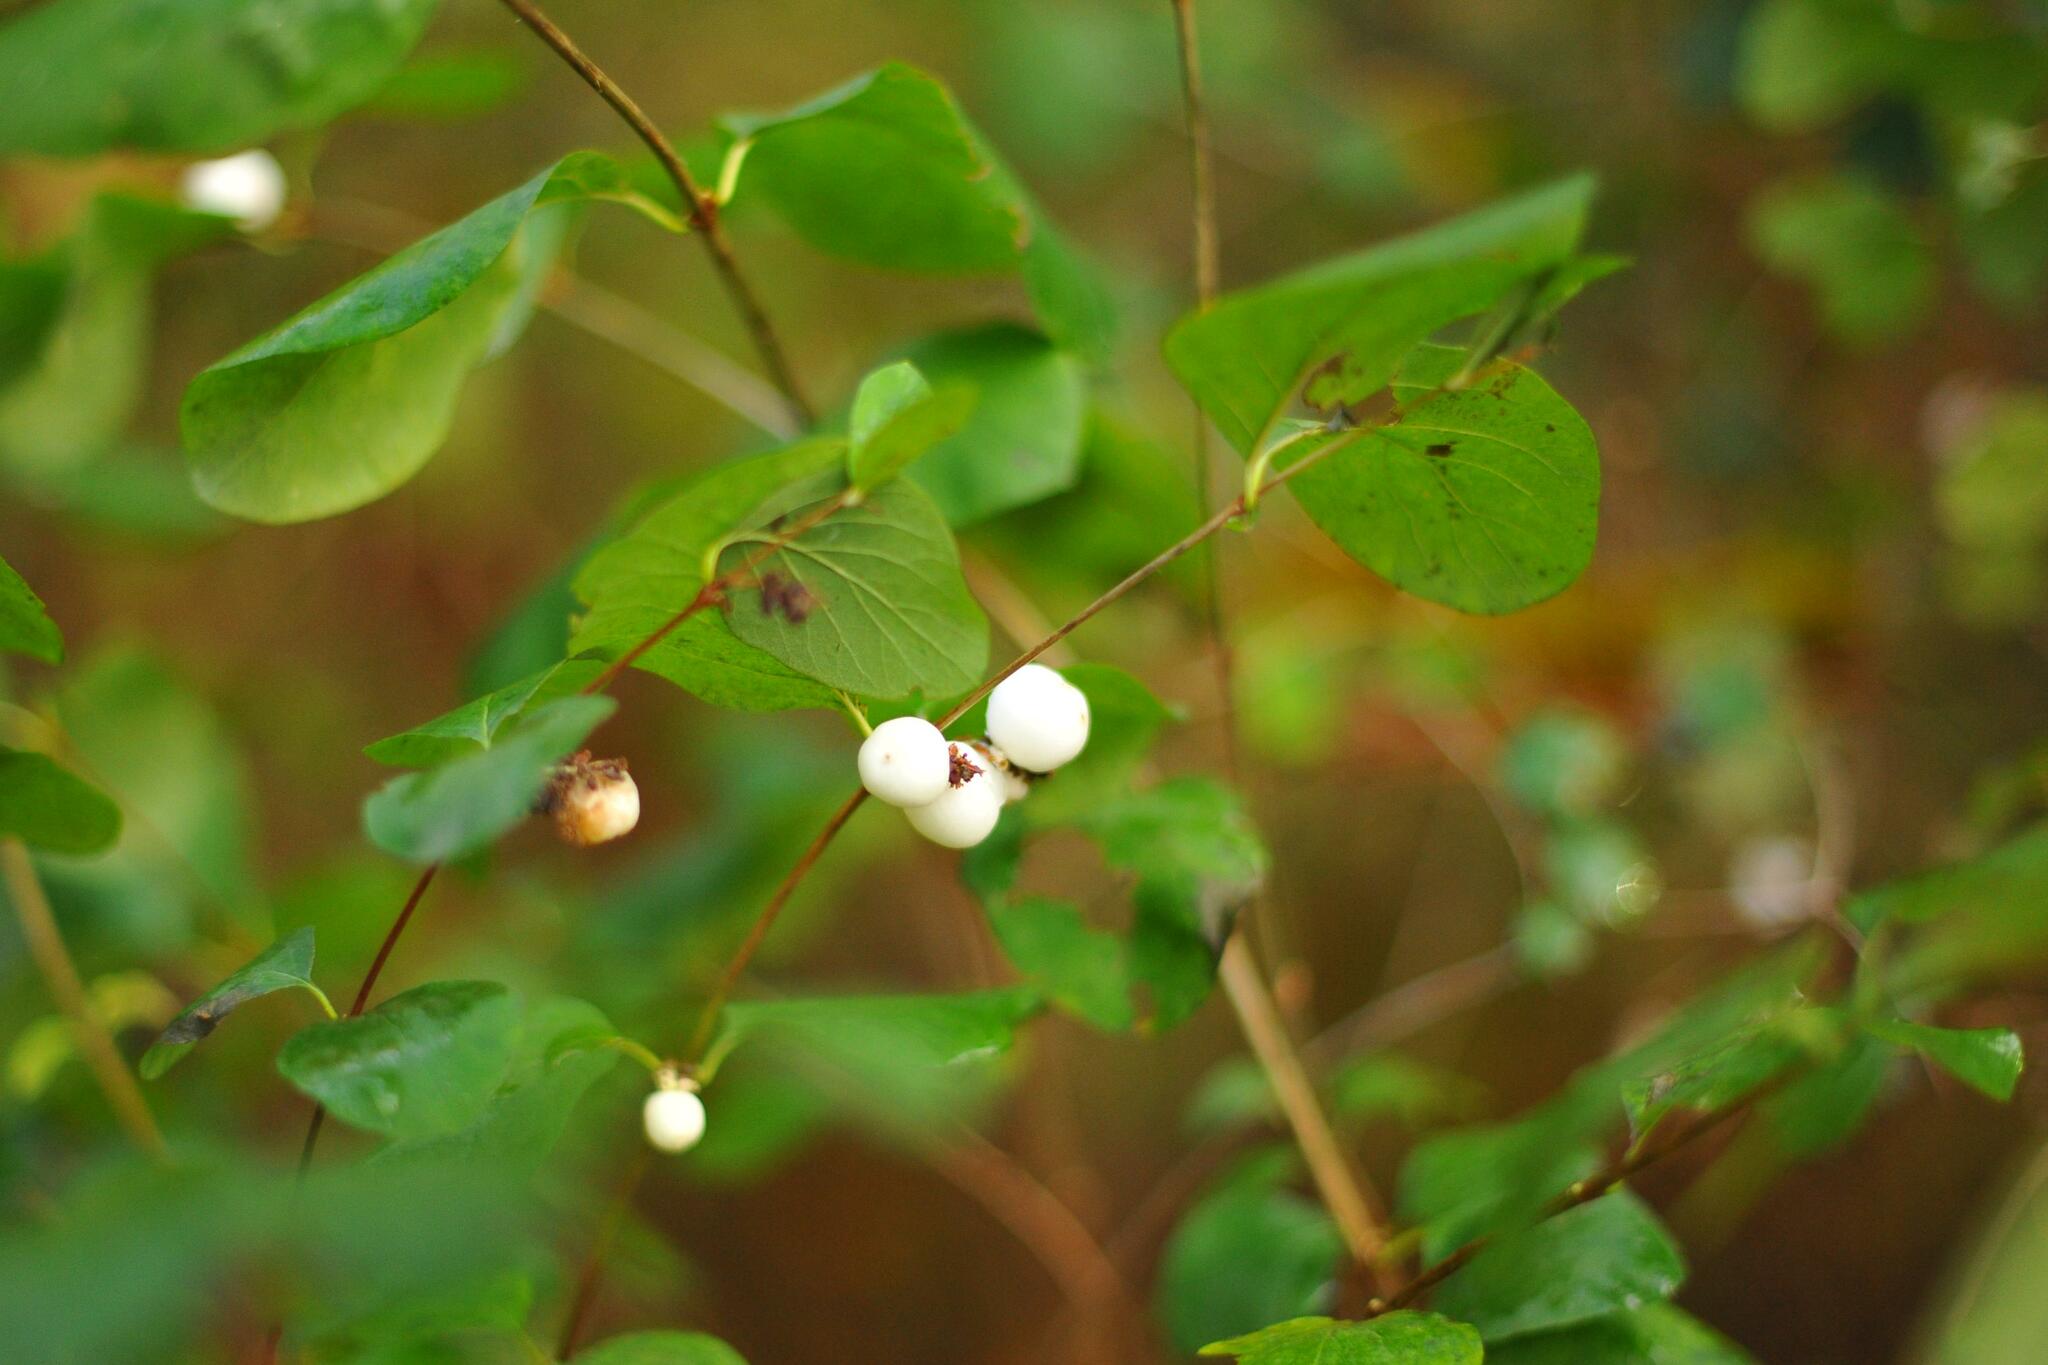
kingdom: Plantae
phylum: Tracheophyta
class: Magnoliopsida
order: Dipsacales
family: Caprifoliaceae
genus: Symphoricarpos
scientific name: Symphoricarpos albus
